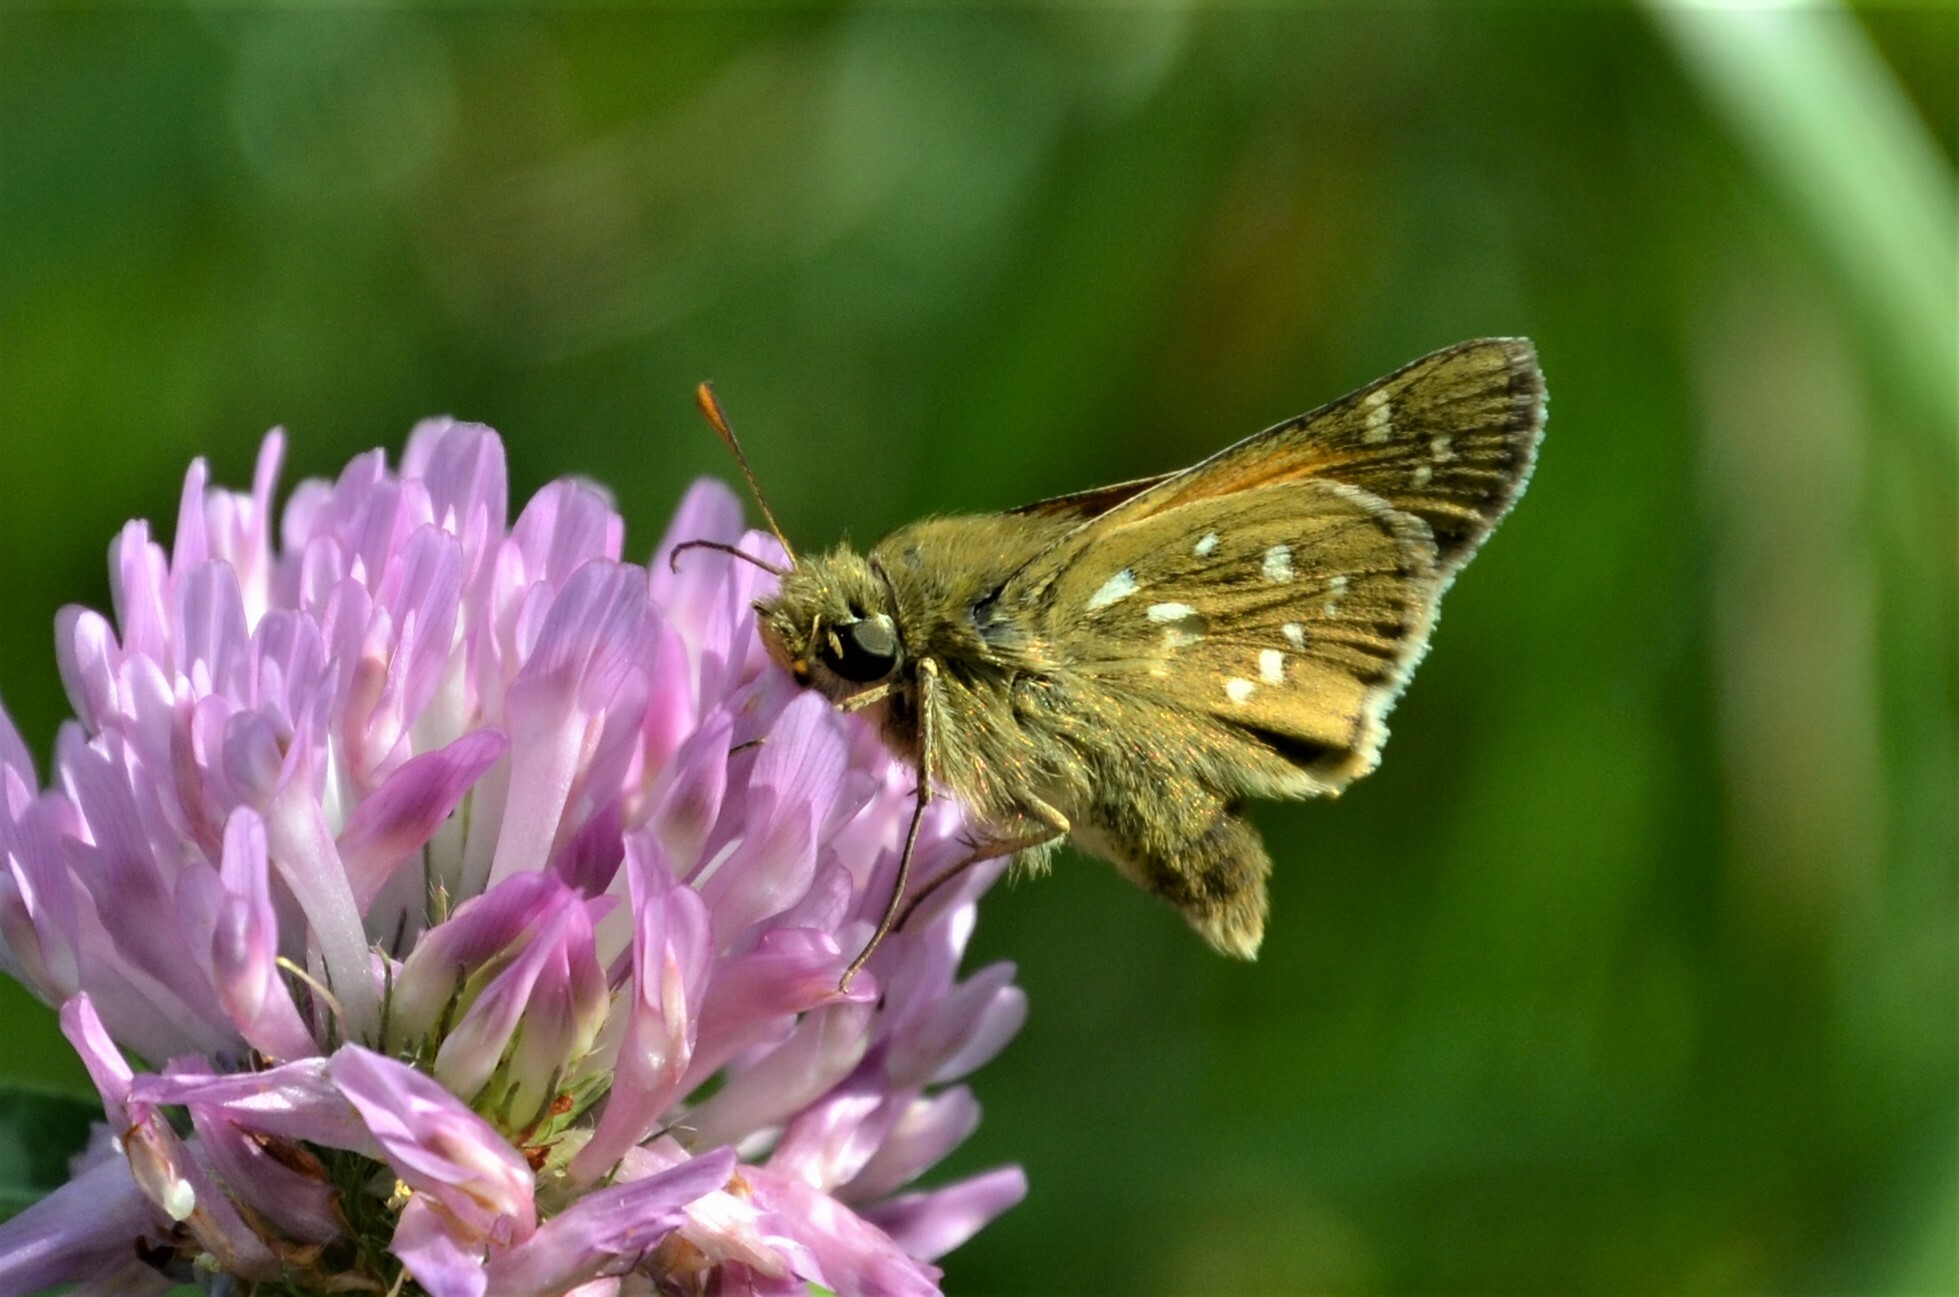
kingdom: Animalia
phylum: Arthropoda
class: Insecta
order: Lepidoptera
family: Hesperiidae
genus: Hesperia
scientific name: Hesperia comma
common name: Common branded skipper
